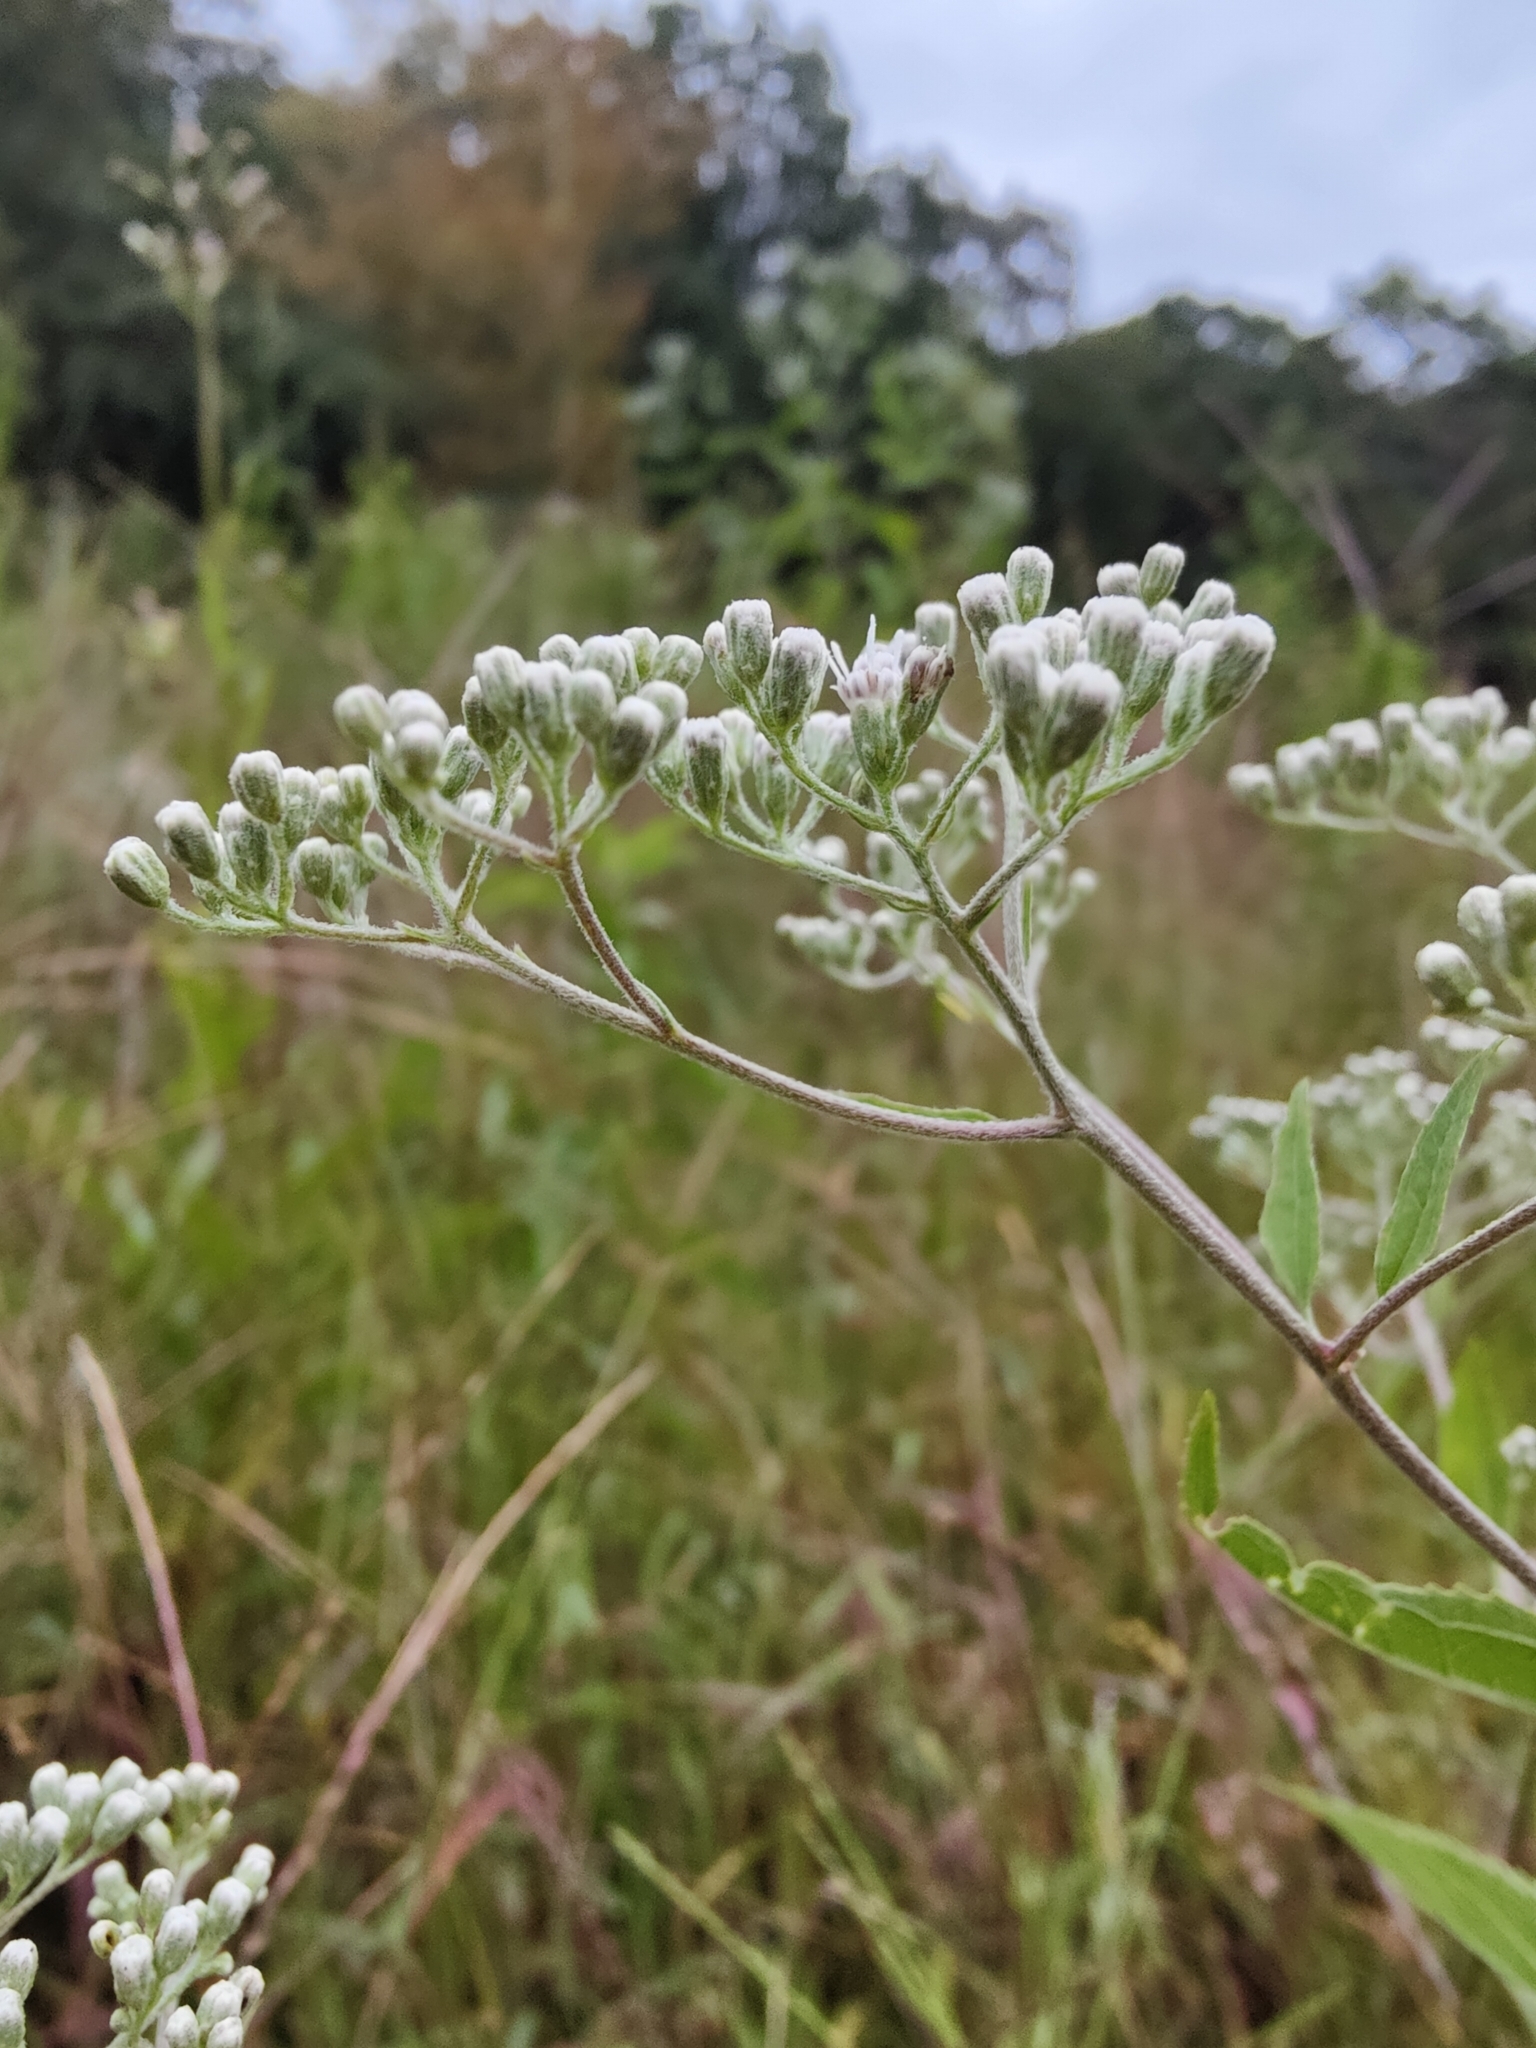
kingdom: Plantae
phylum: Tracheophyta
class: Magnoliopsida
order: Asterales
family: Asteraceae
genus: Eupatorium
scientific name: Eupatorium serotinum
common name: Late boneset
